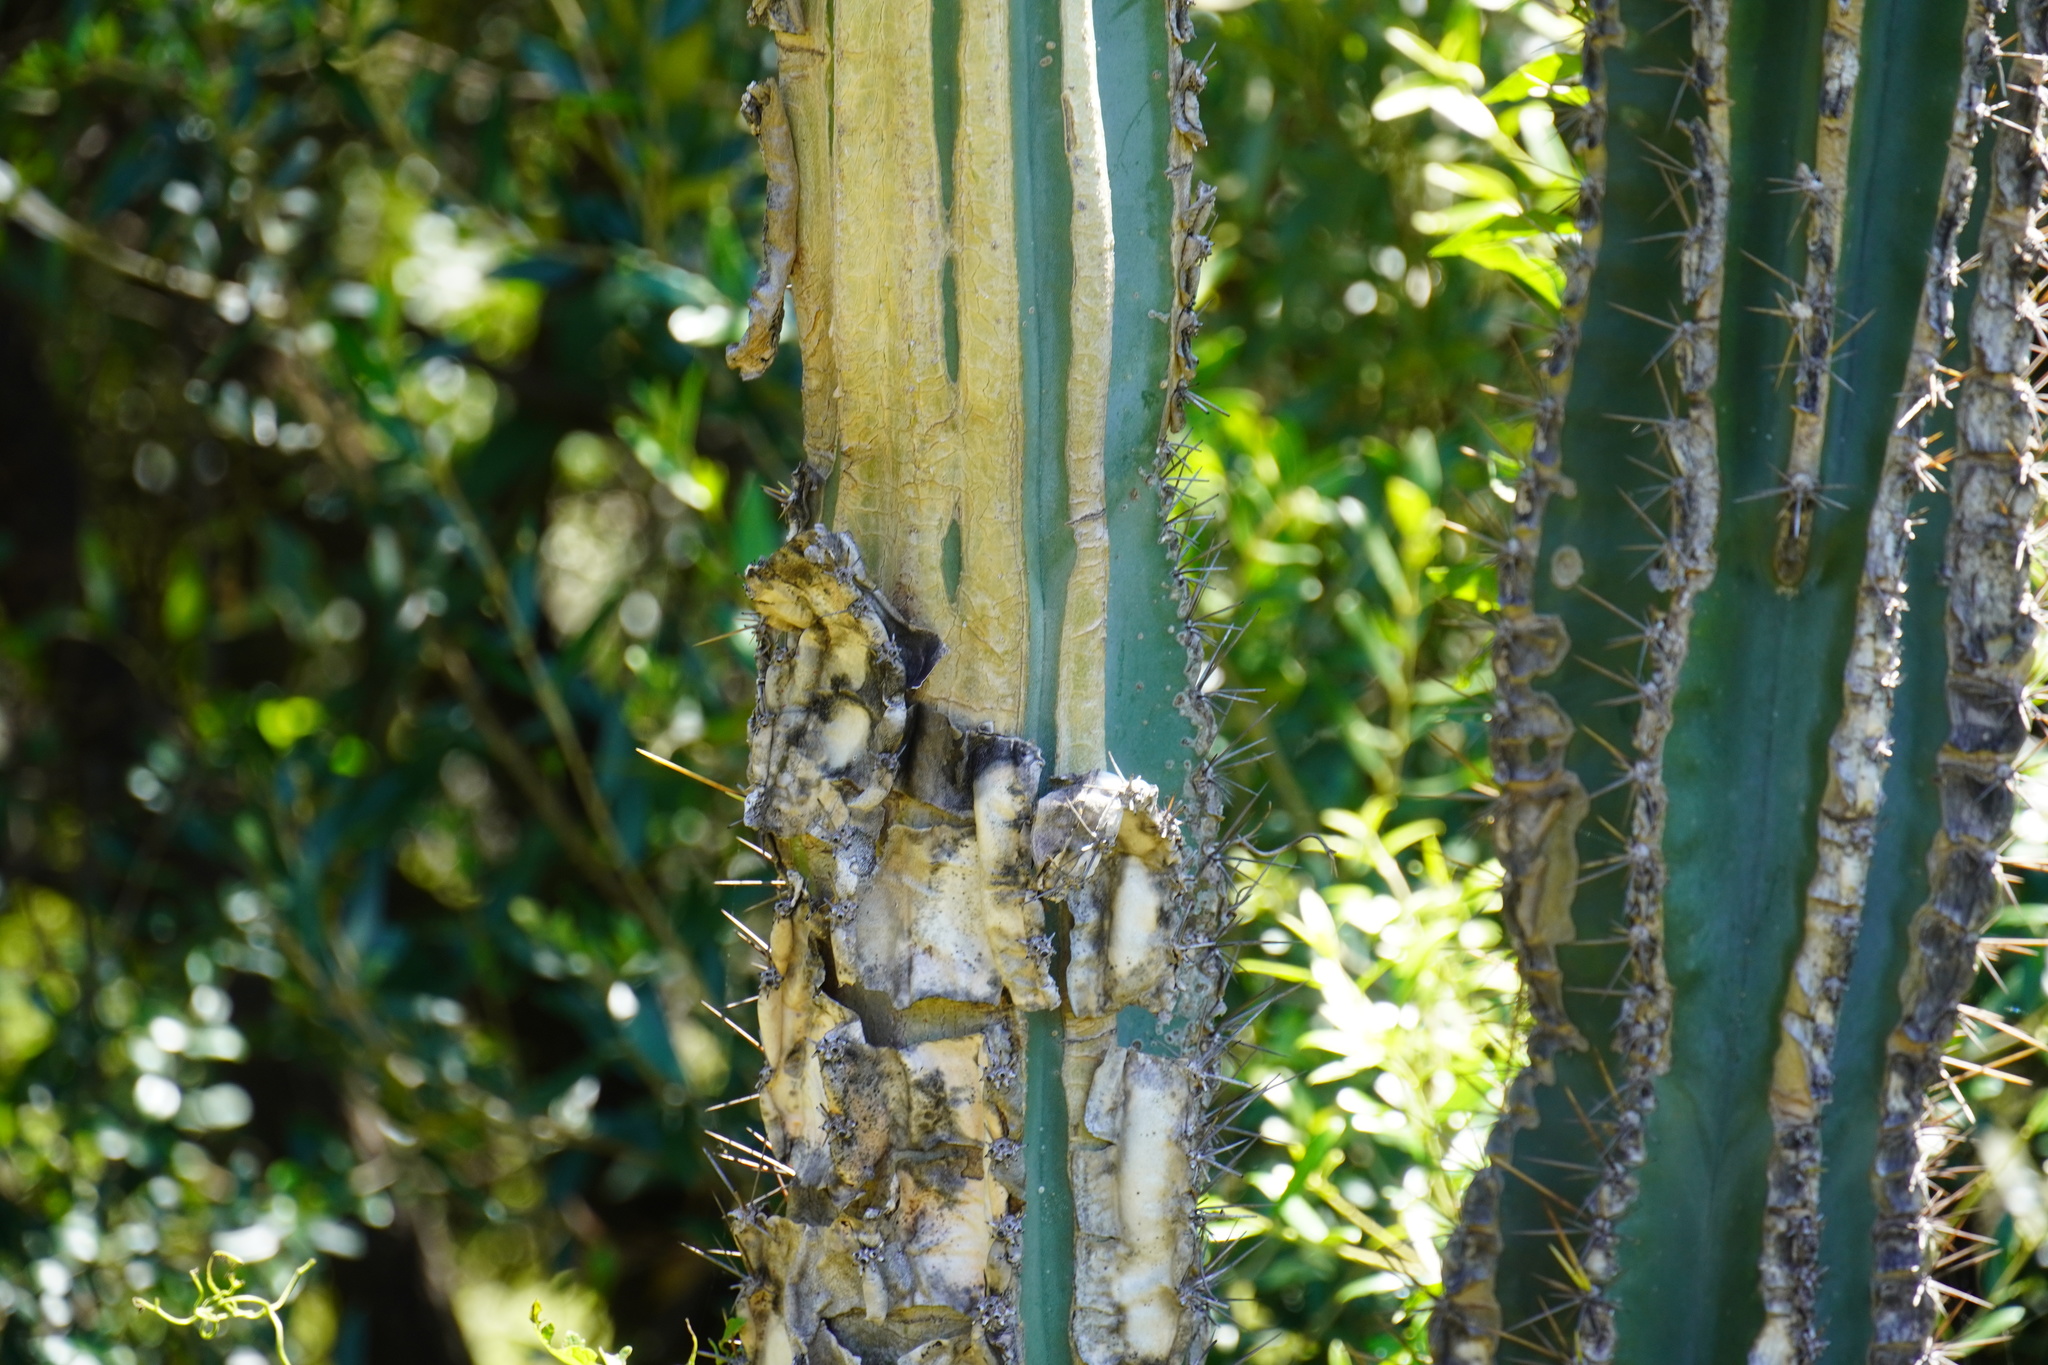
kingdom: Plantae
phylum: Tracheophyta
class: Magnoliopsida
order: Caryophyllales
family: Cactaceae
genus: Cereus
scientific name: Cereus jamacaru
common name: Queen-of-the-night
